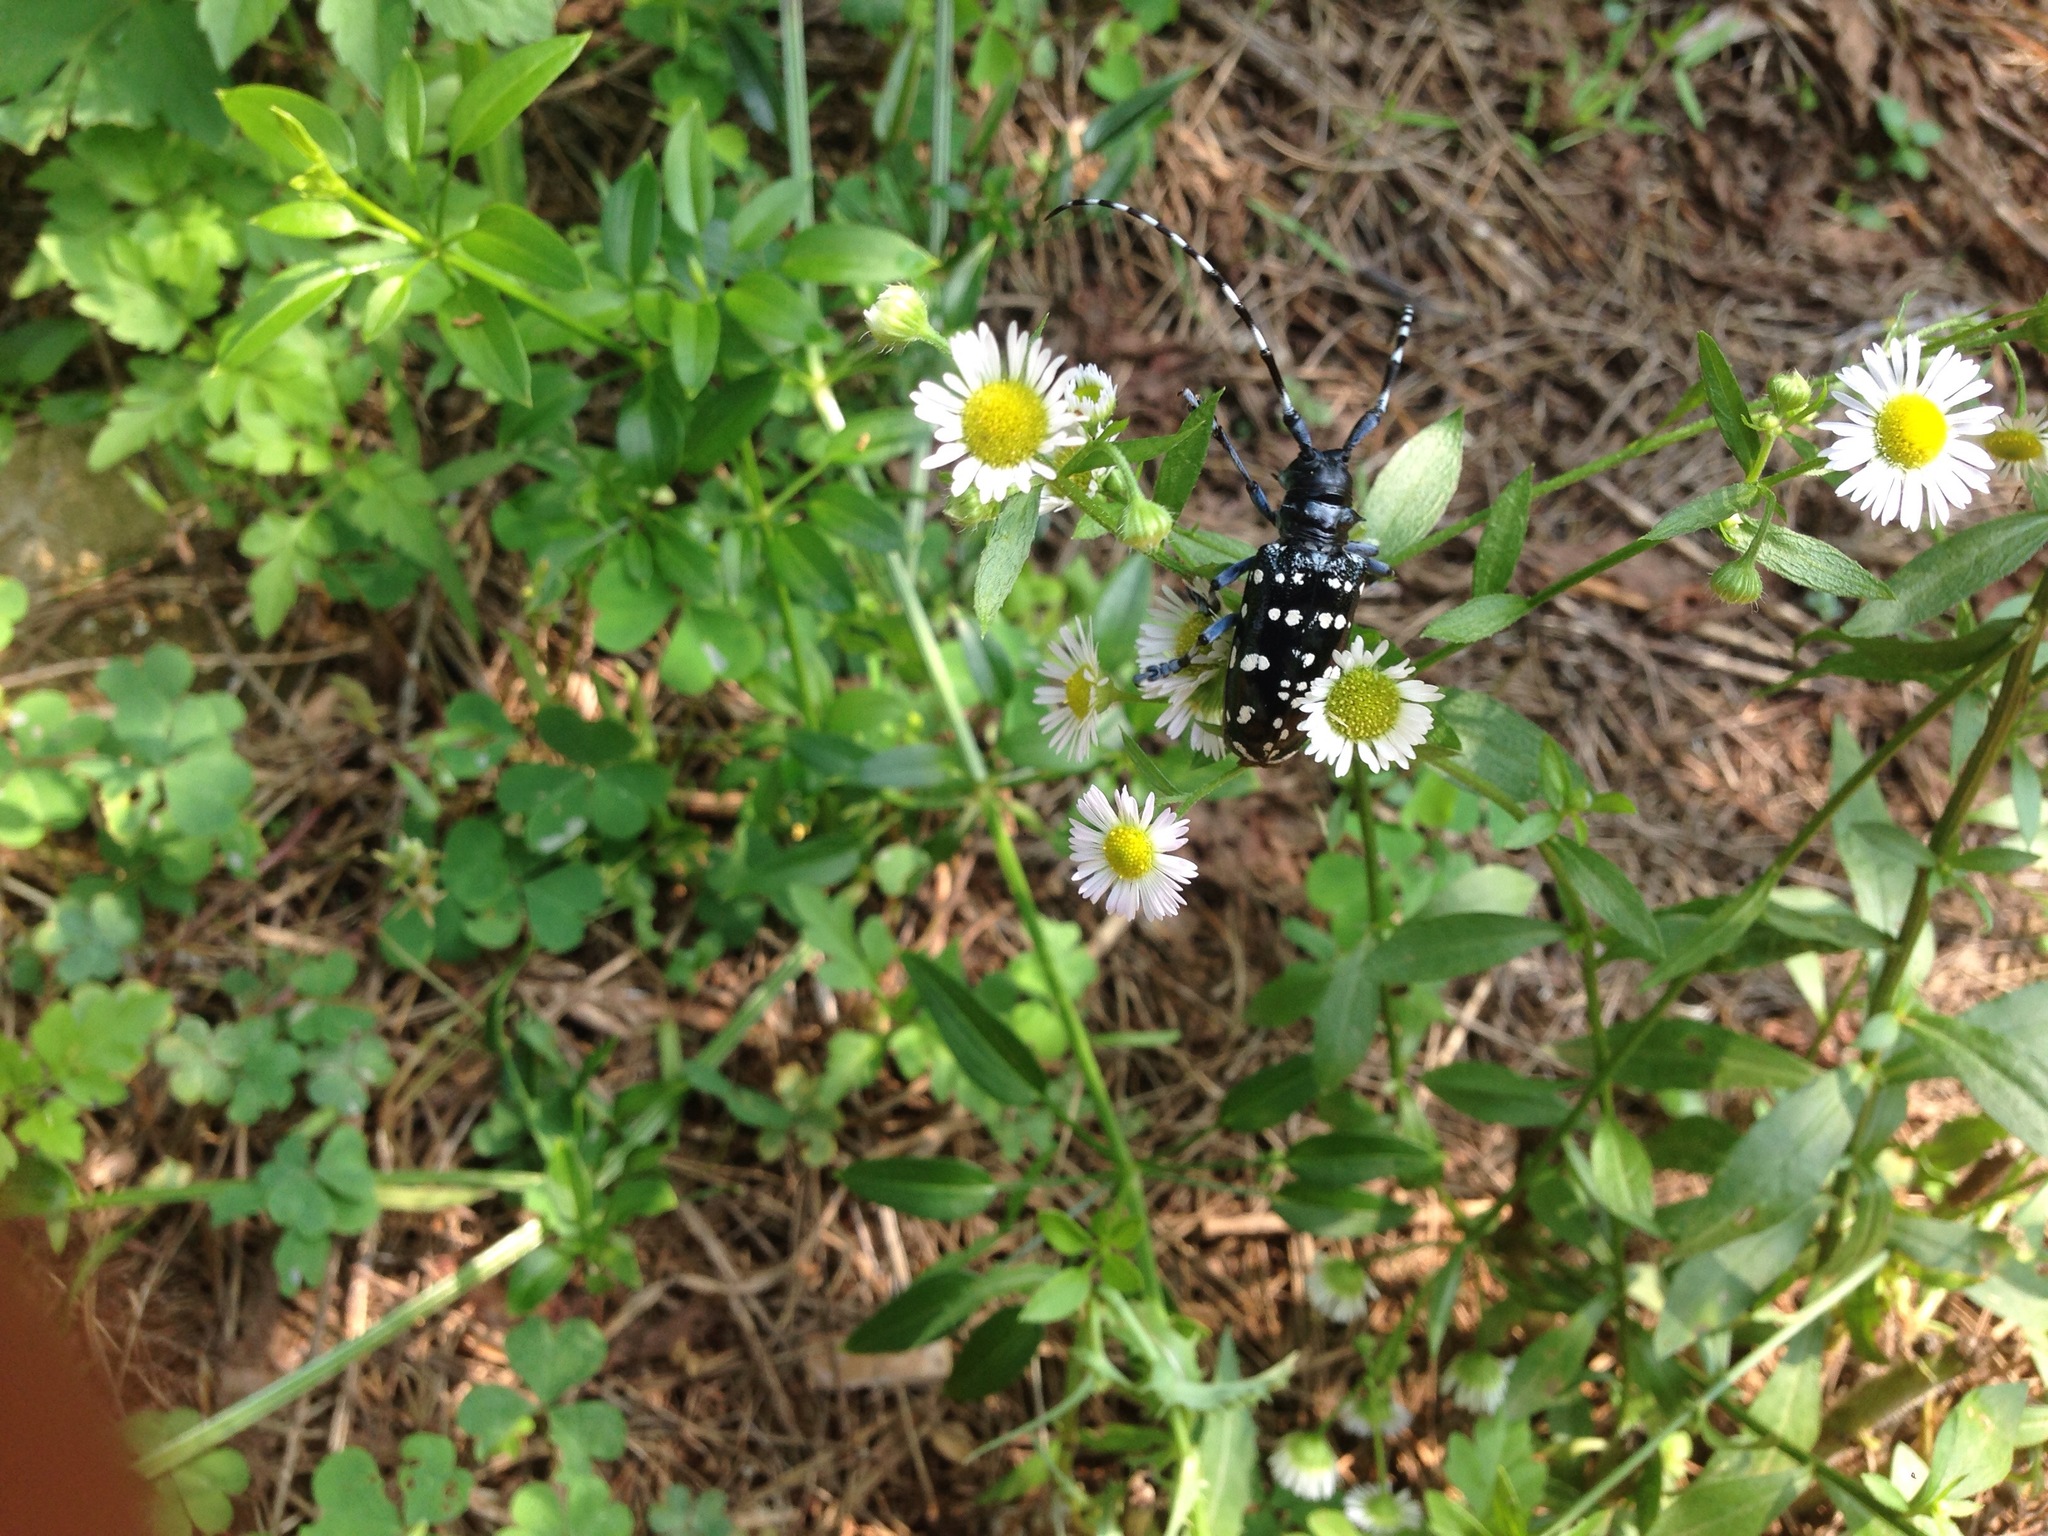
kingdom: Animalia
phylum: Arthropoda
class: Insecta
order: Coleoptera
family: Cerambycidae
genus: Anoplophora
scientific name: Anoplophora chinensis
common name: Citrus longhorned beetle
